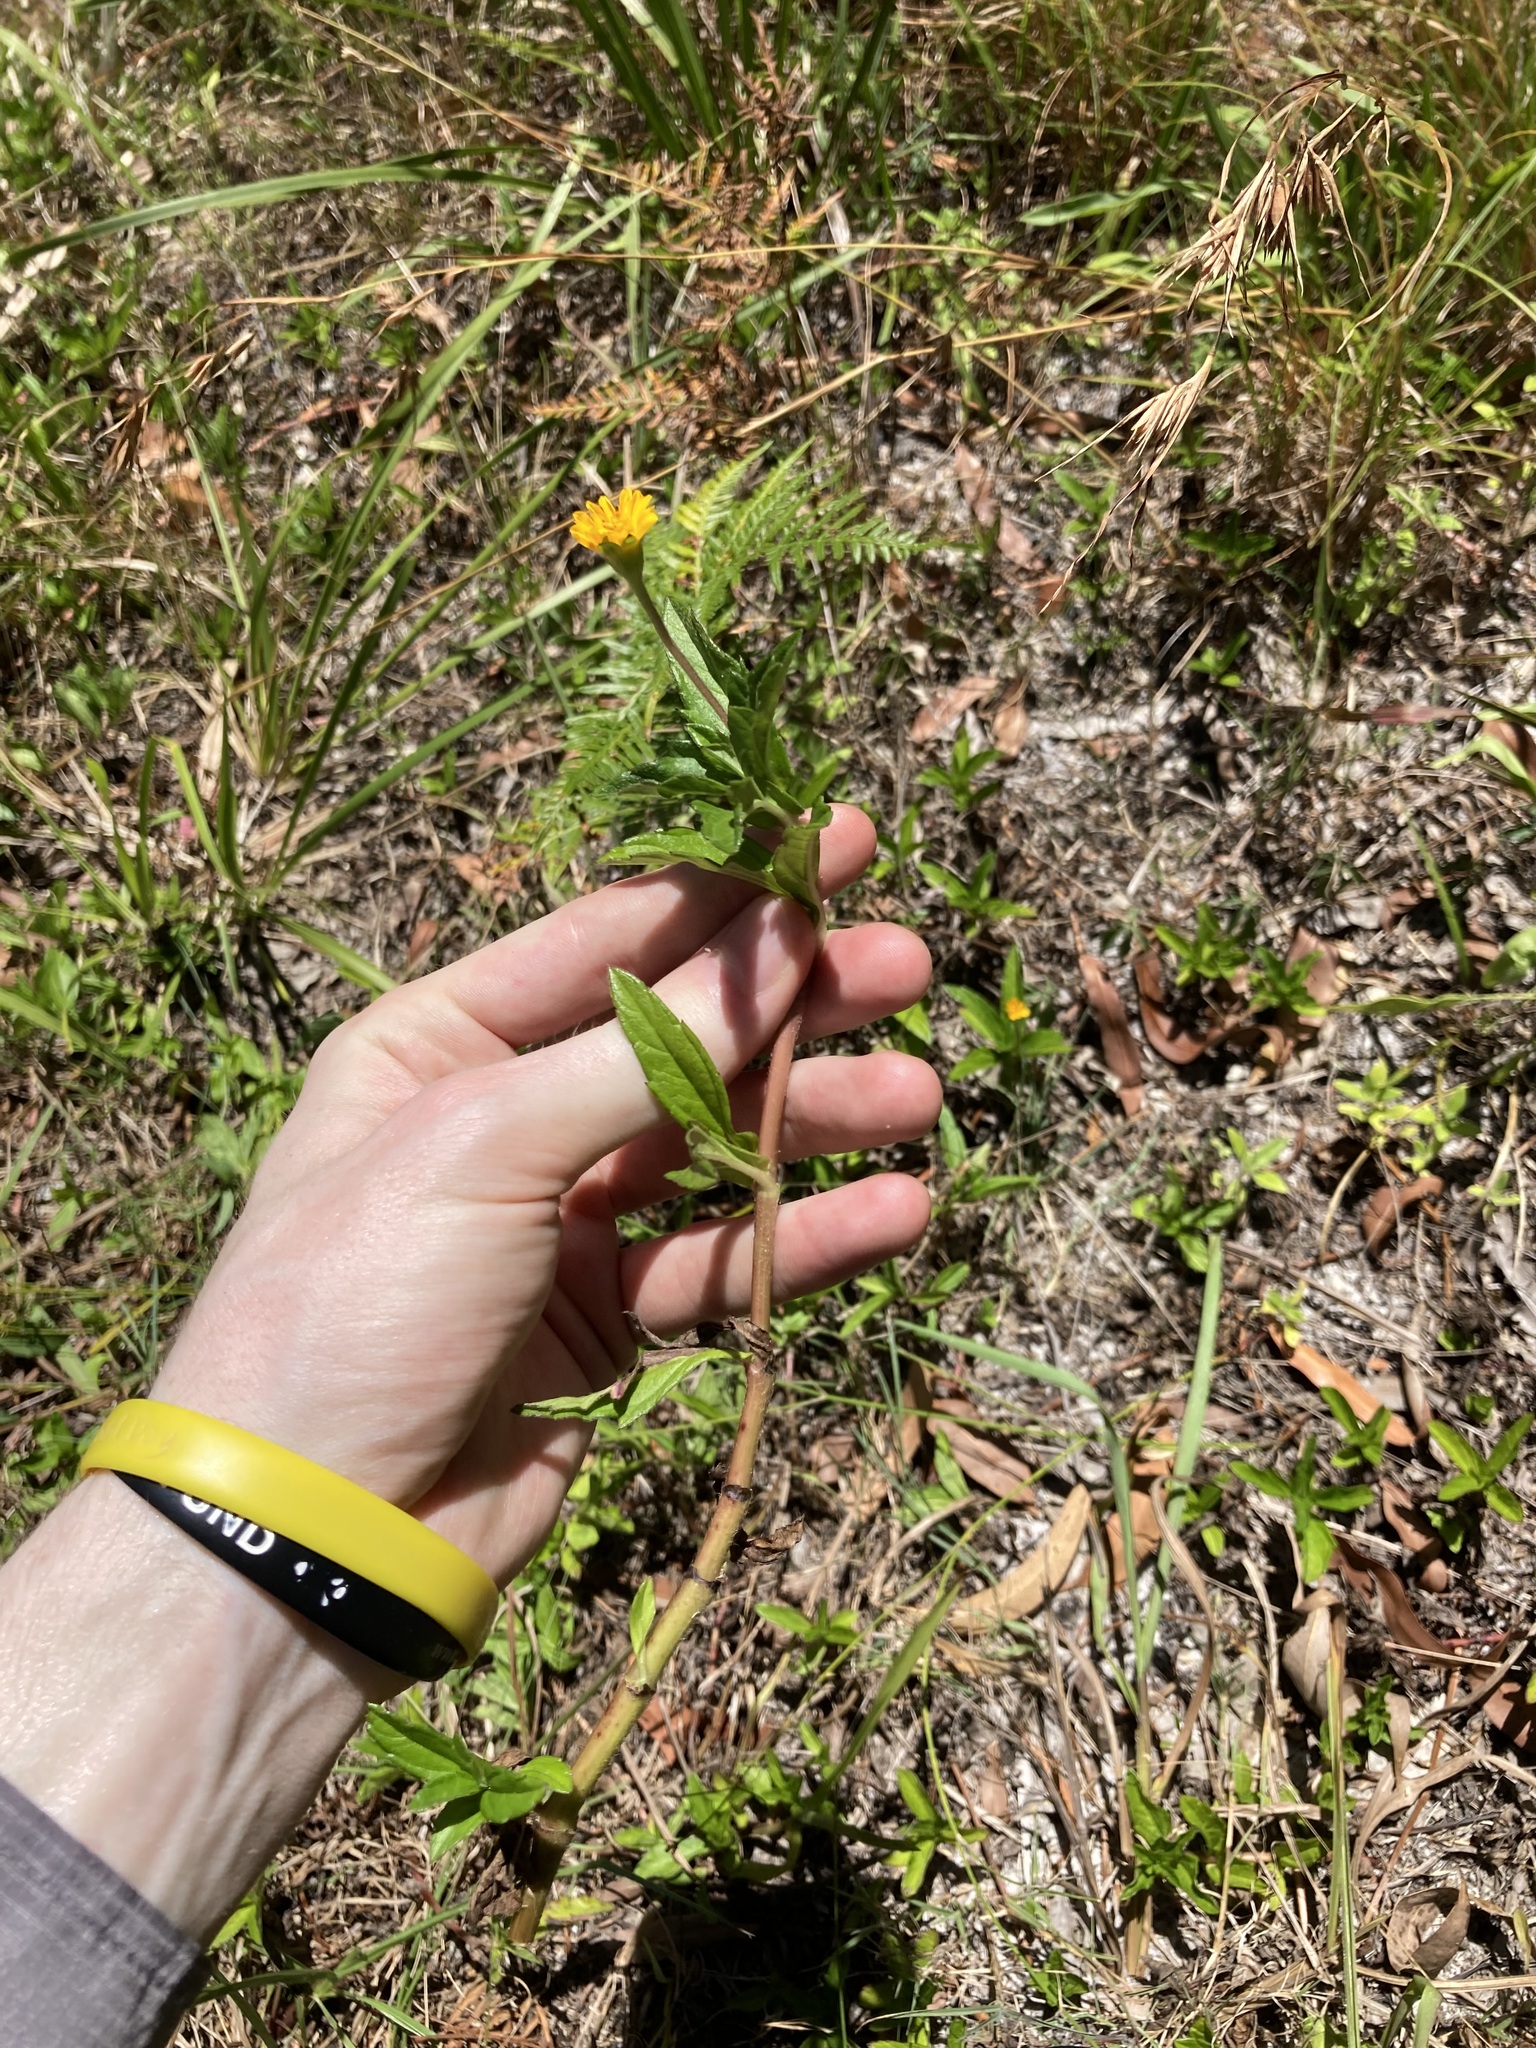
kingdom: Plantae
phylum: Tracheophyta
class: Magnoliopsida
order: Asterales
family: Asteraceae
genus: Sphagneticola
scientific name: Sphagneticola trilobata
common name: Bay biscayne creeping-oxeye
